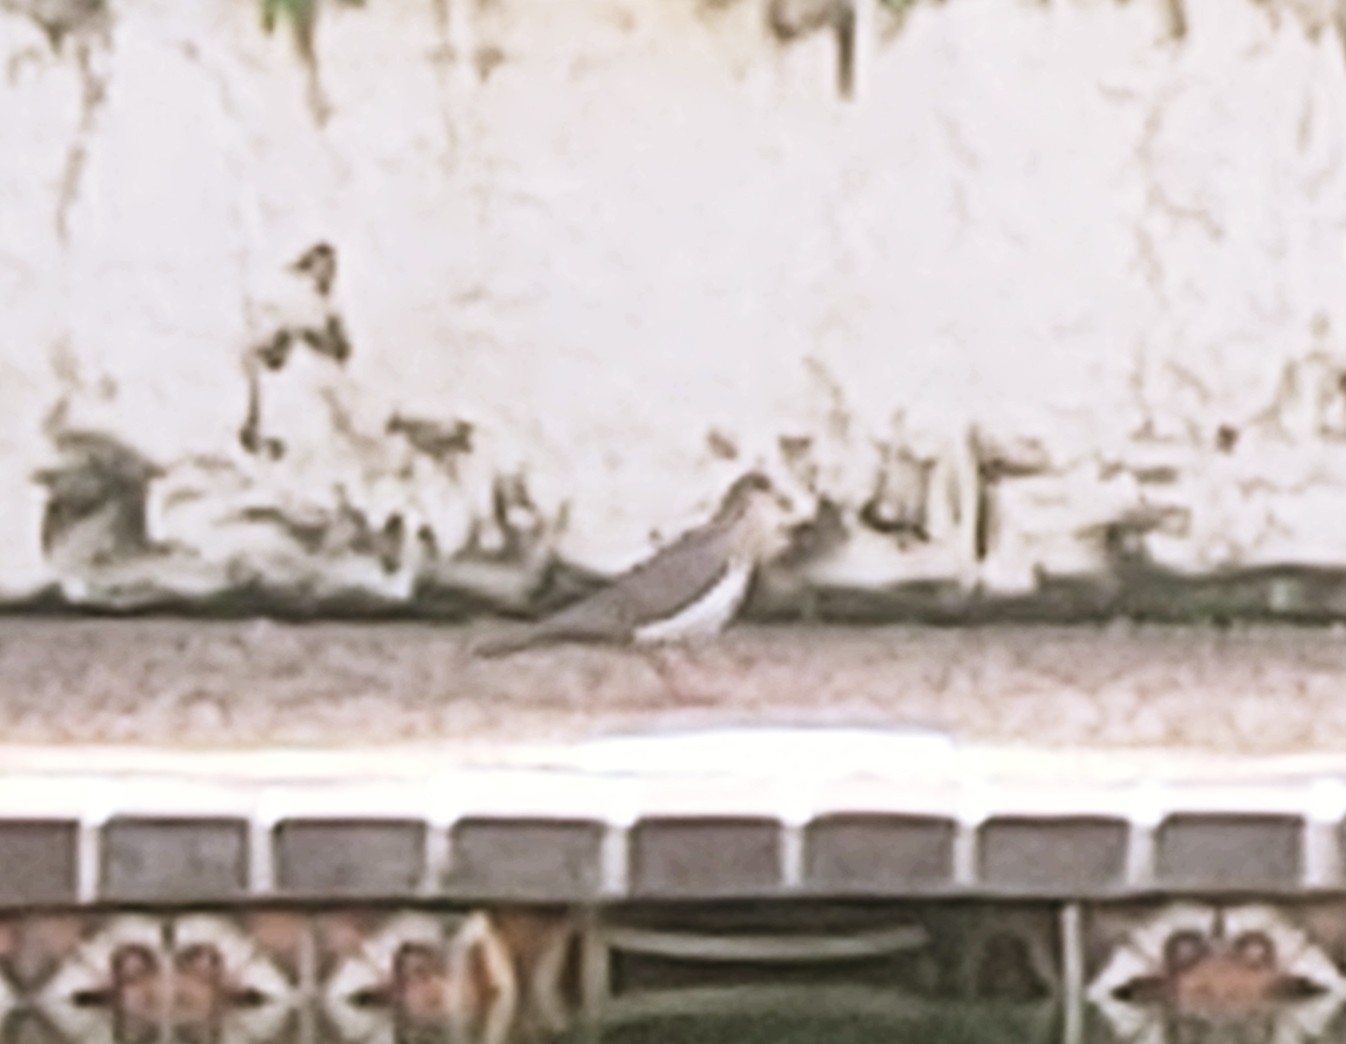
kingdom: Animalia
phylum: Chordata
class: Aves
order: Columbiformes
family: Columbidae
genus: Zenaida
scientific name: Zenaida asiatica
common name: White-winged dove
